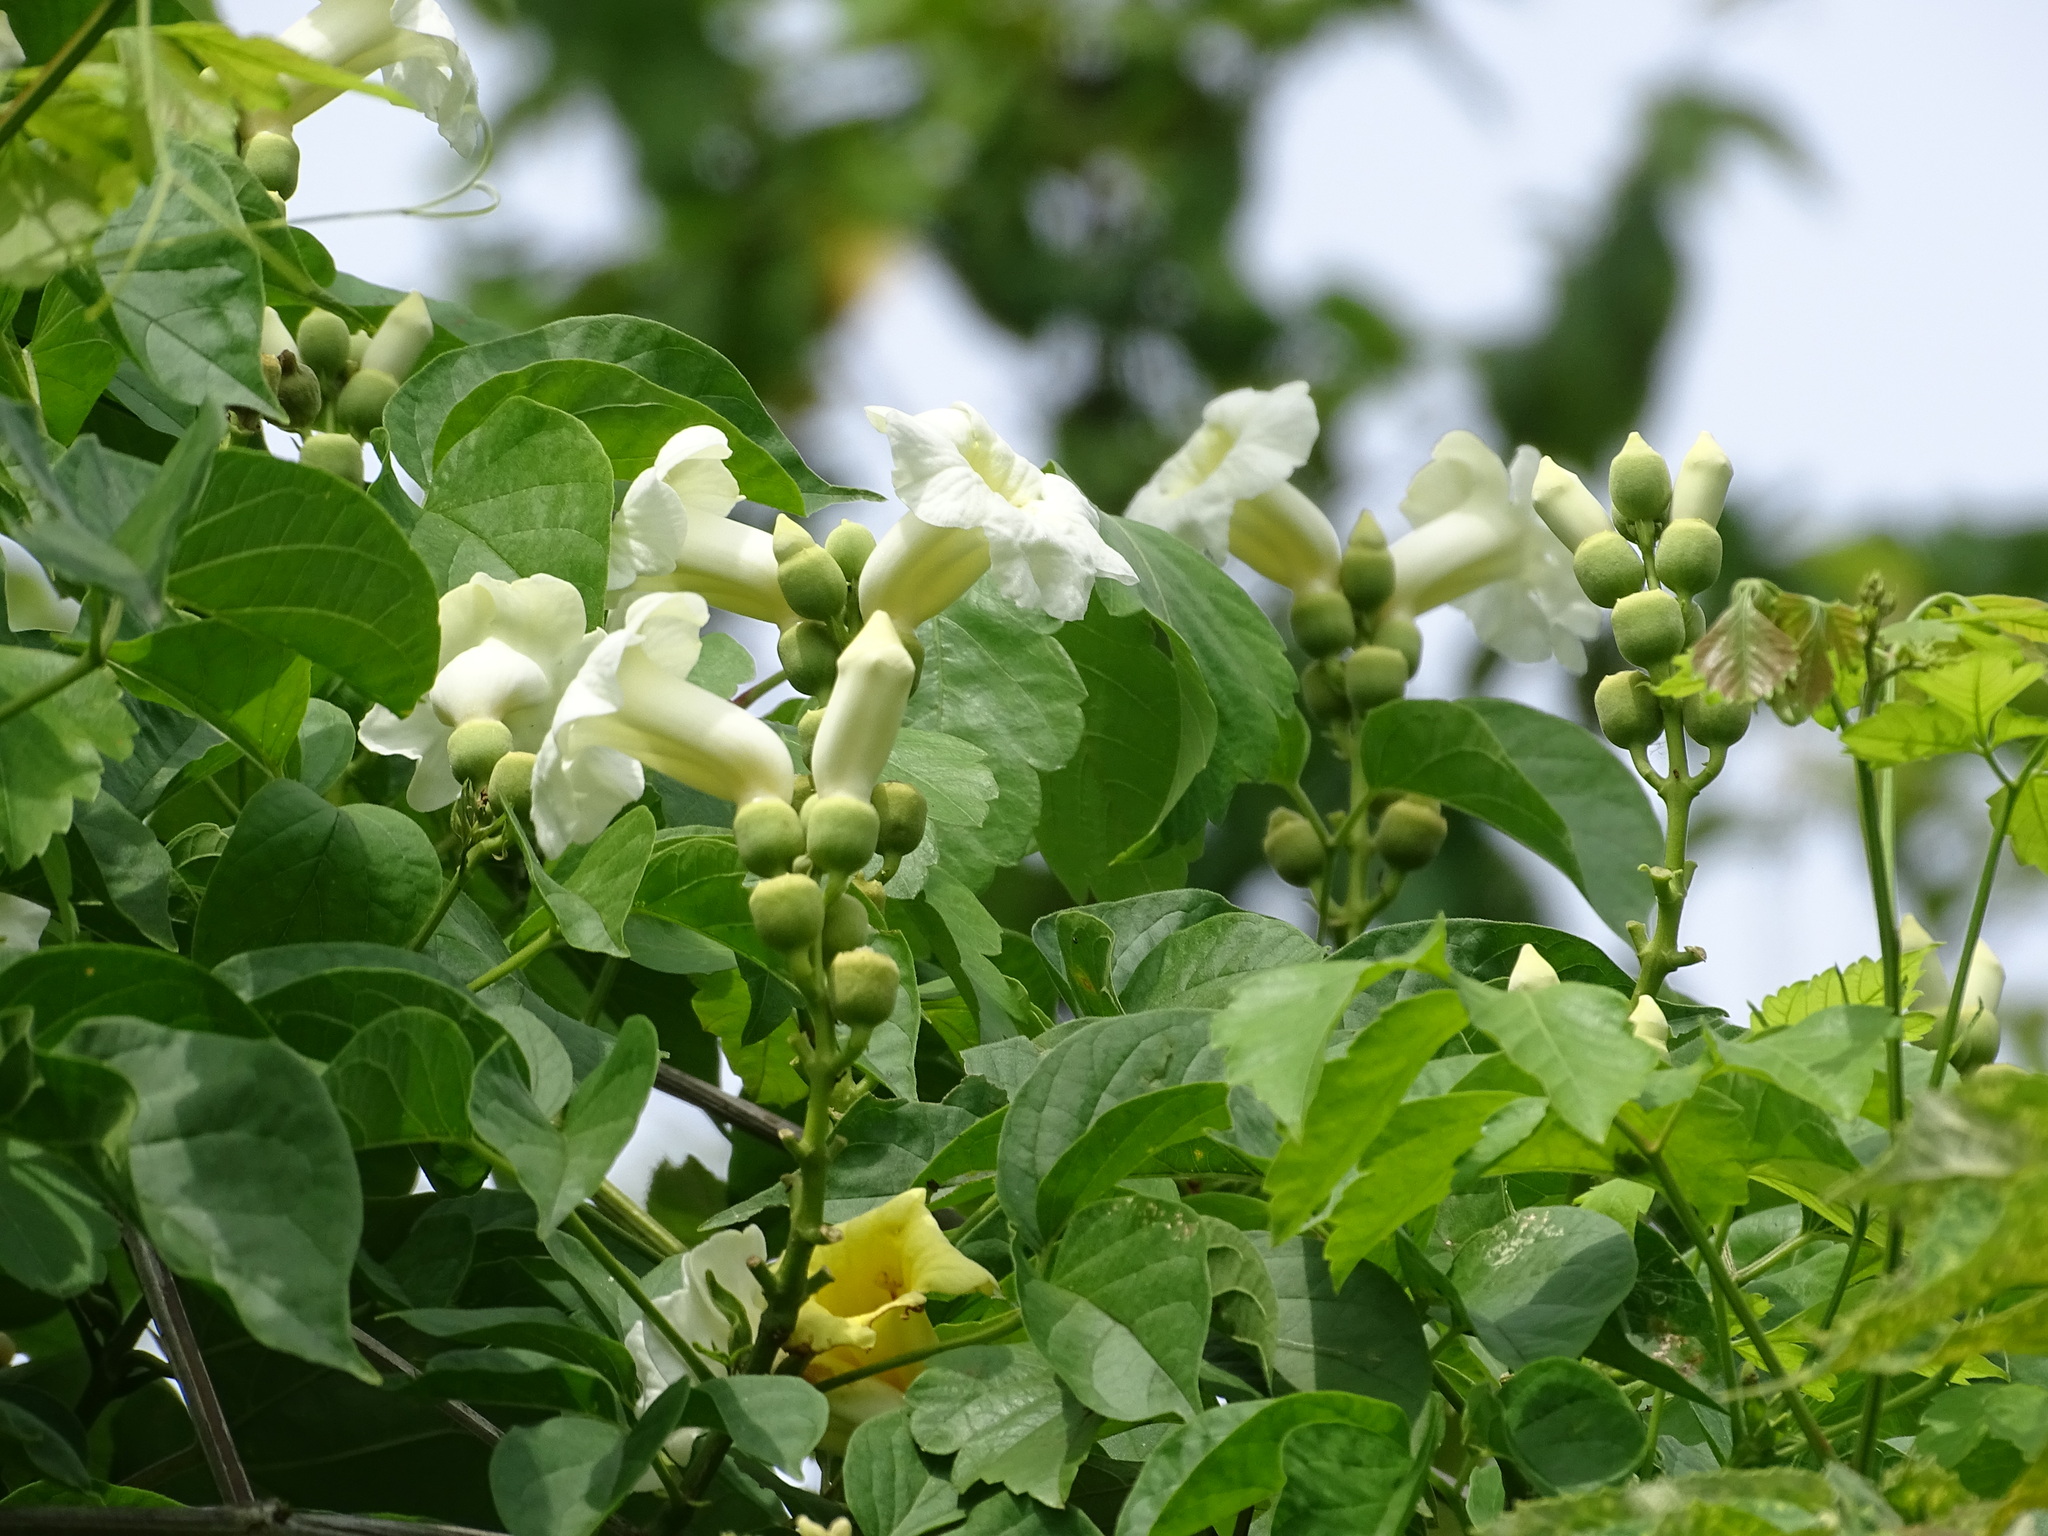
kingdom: Plantae
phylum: Tracheophyta
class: Magnoliopsida
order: Lamiales
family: Bignoniaceae
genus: Amphilophium
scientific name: Amphilophium crucigerum
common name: Monkey comb
